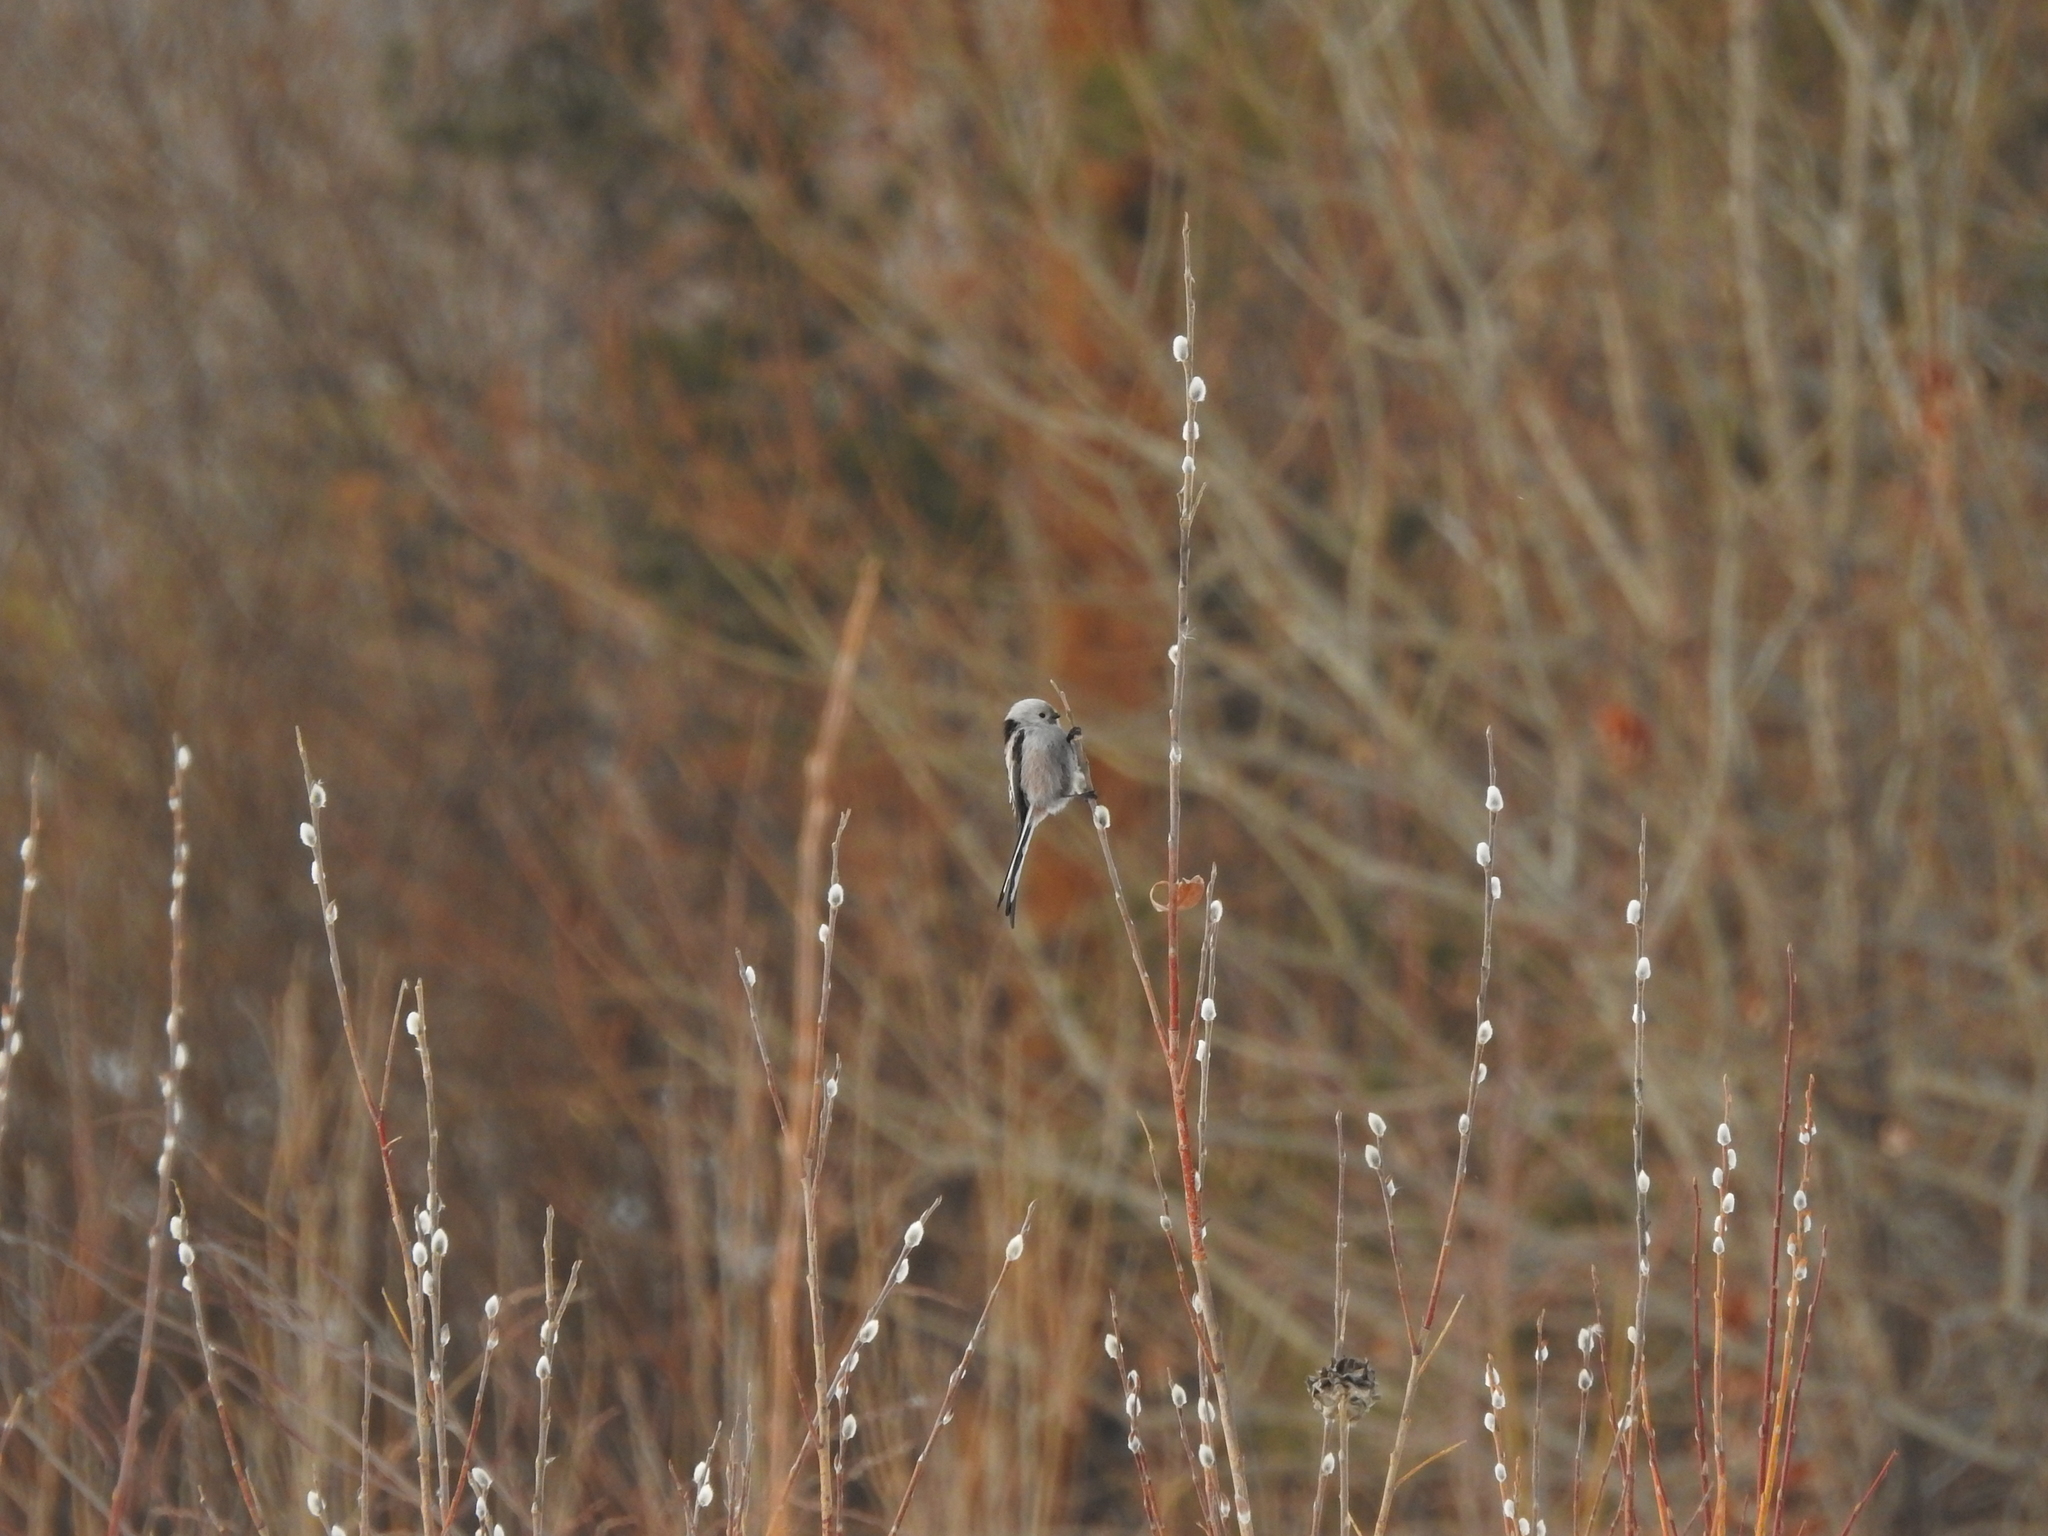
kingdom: Animalia
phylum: Chordata
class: Aves
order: Passeriformes
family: Aegithalidae
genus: Aegithalos
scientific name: Aegithalos caudatus
